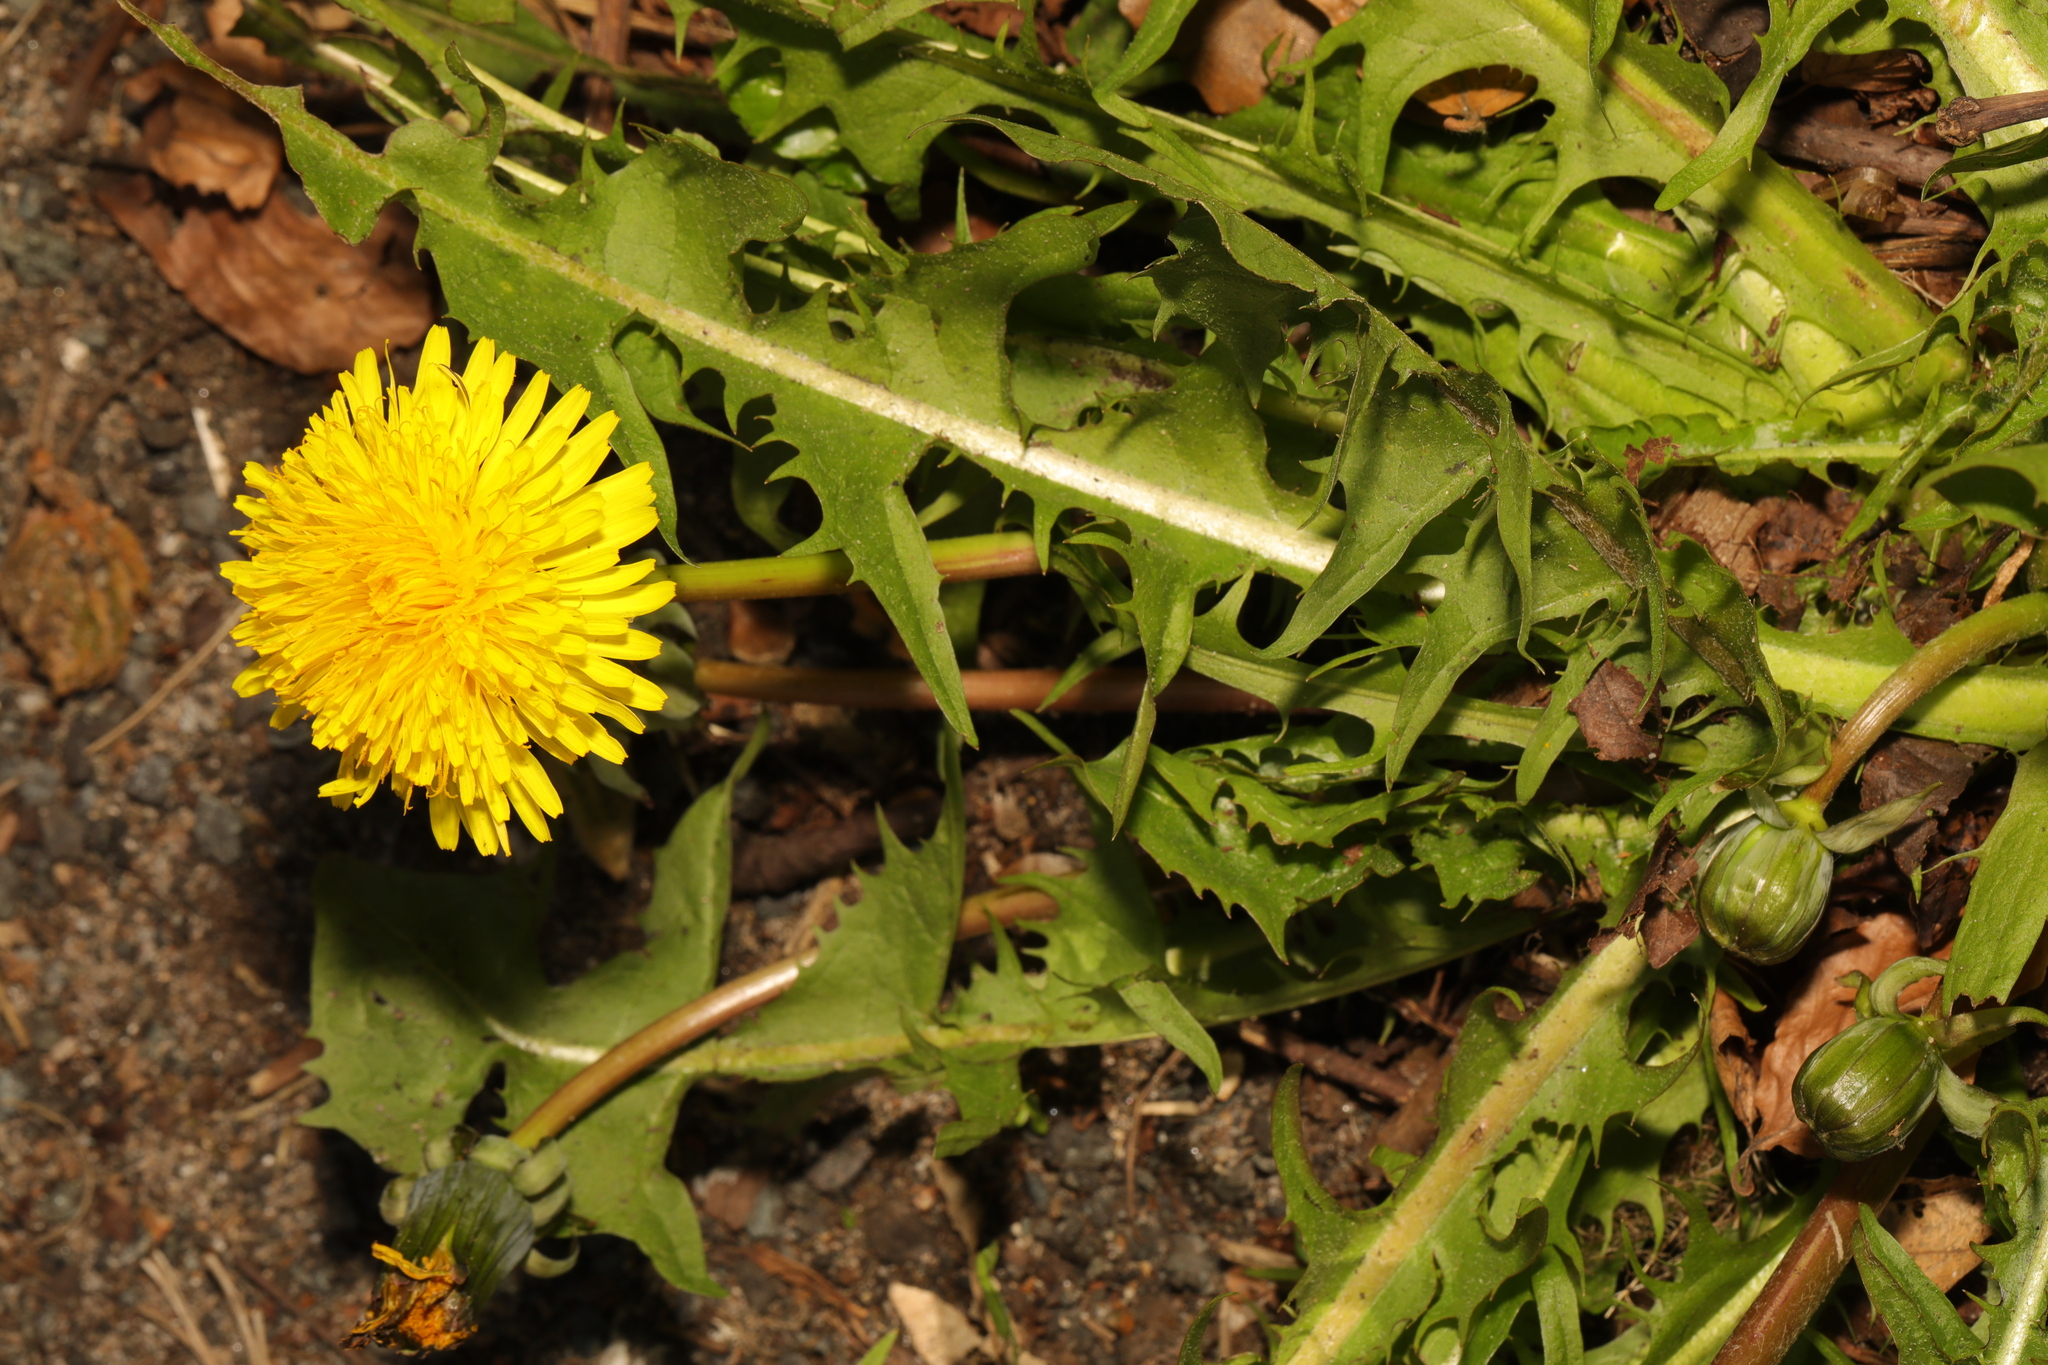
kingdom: Plantae
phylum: Tracheophyta
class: Magnoliopsida
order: Asterales
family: Asteraceae
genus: Taraxacum
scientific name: Taraxacum officinale
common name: Common dandelion
